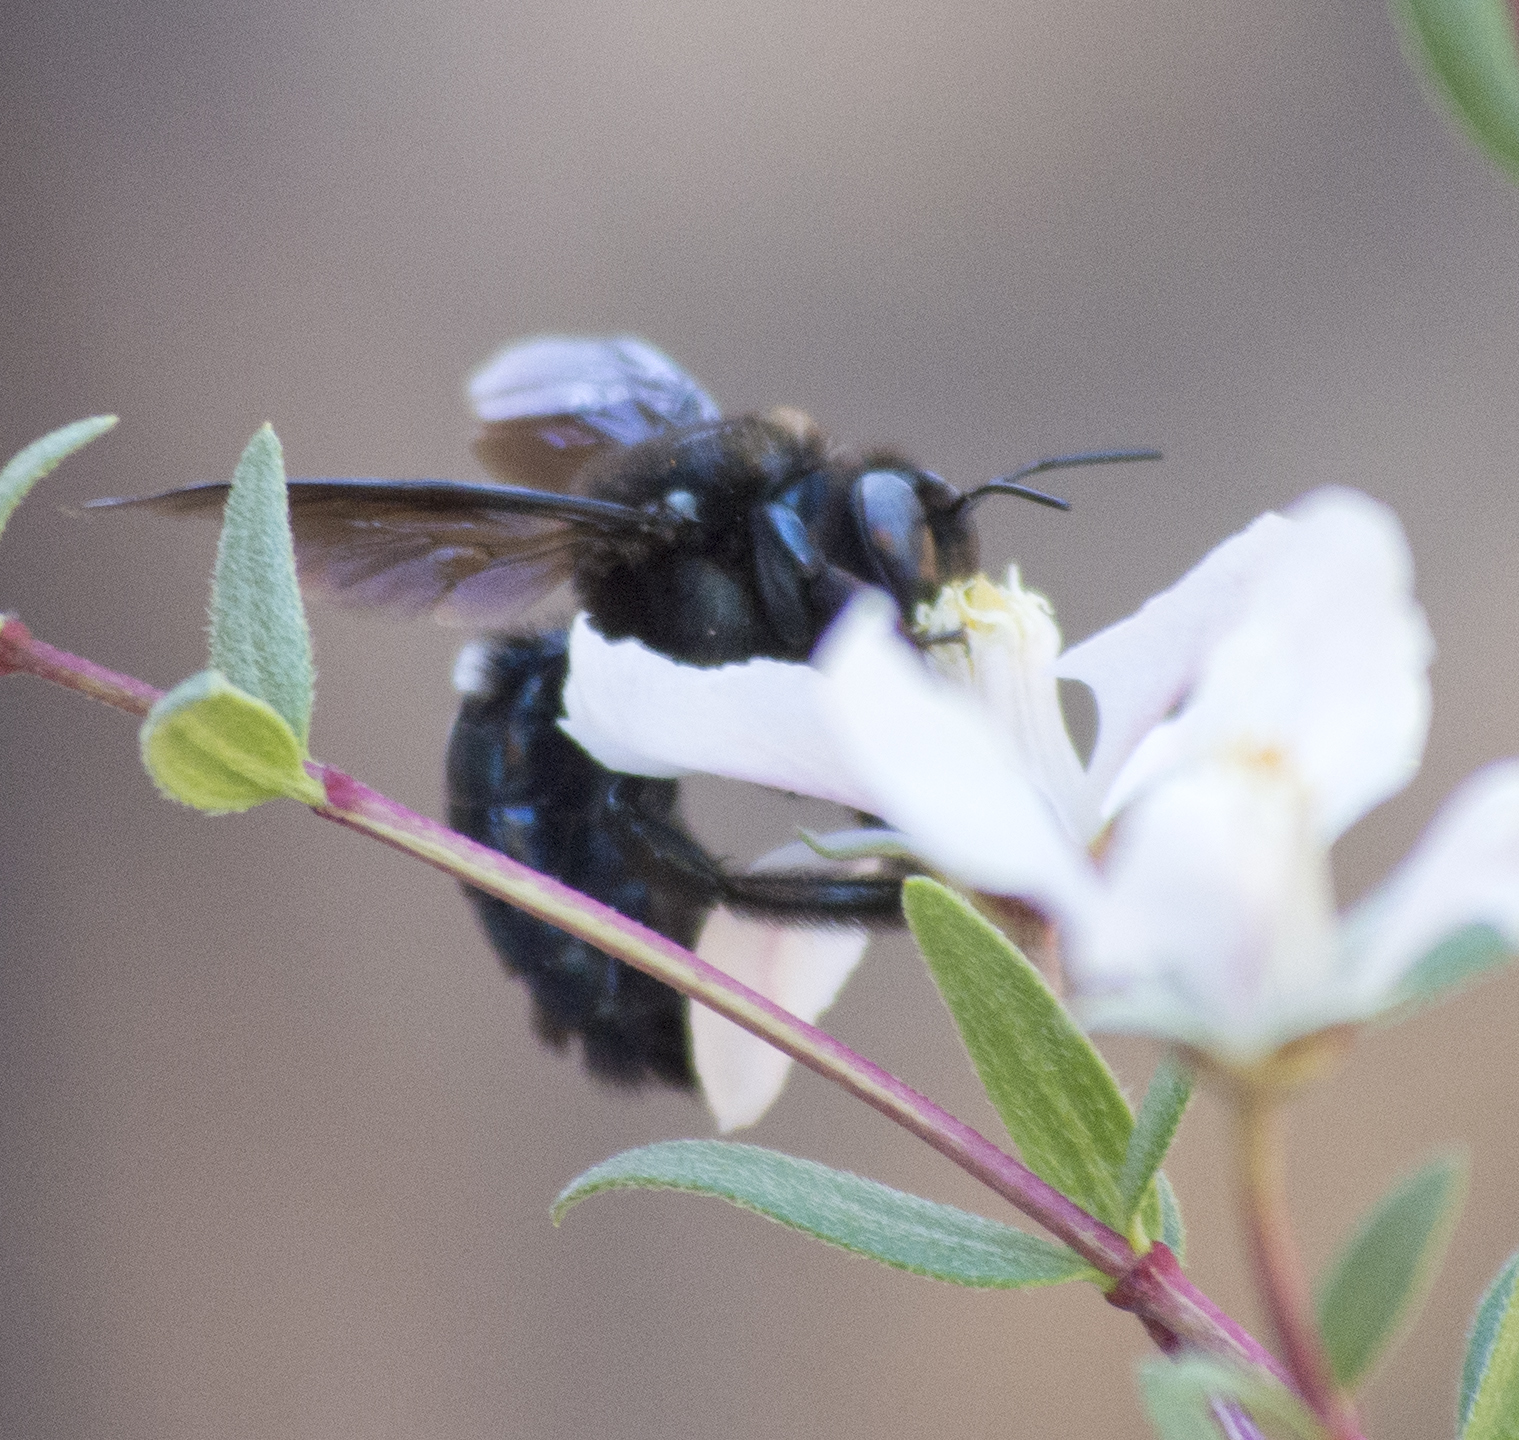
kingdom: Animalia
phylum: Arthropoda
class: Insecta
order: Hymenoptera
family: Apidae
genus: Xylocopa
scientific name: Xylocopa californica
